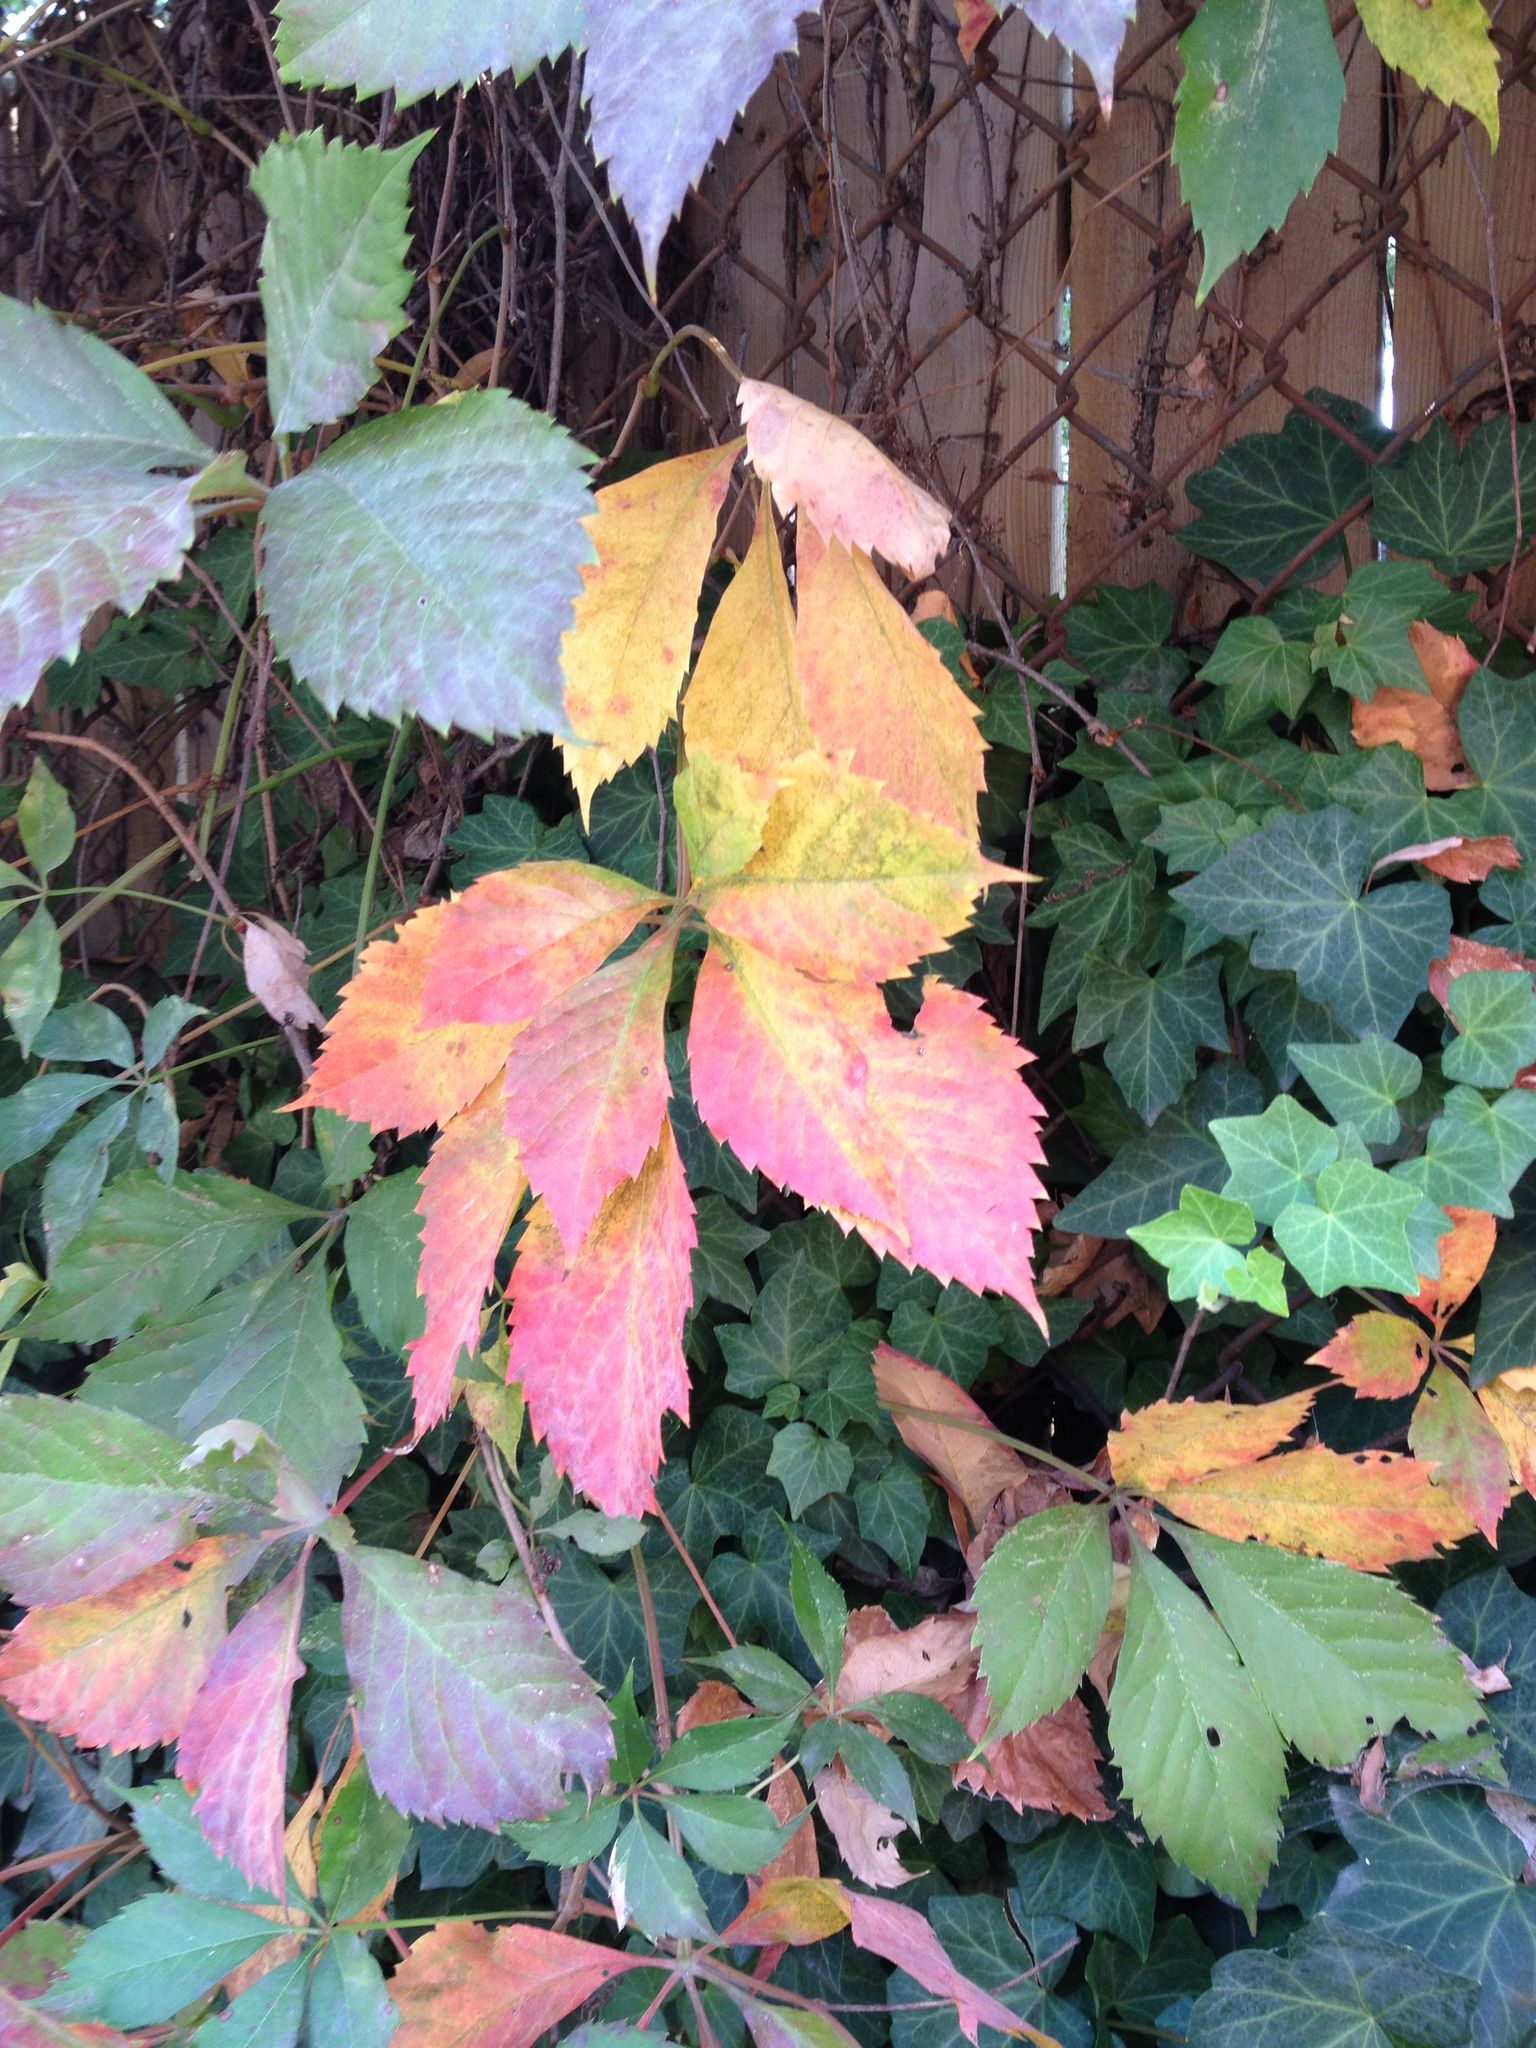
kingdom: Plantae
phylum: Tracheophyta
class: Magnoliopsida
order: Vitales
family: Vitaceae
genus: Parthenocissus
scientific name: Parthenocissus quinquefolia
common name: Virginia-creeper
